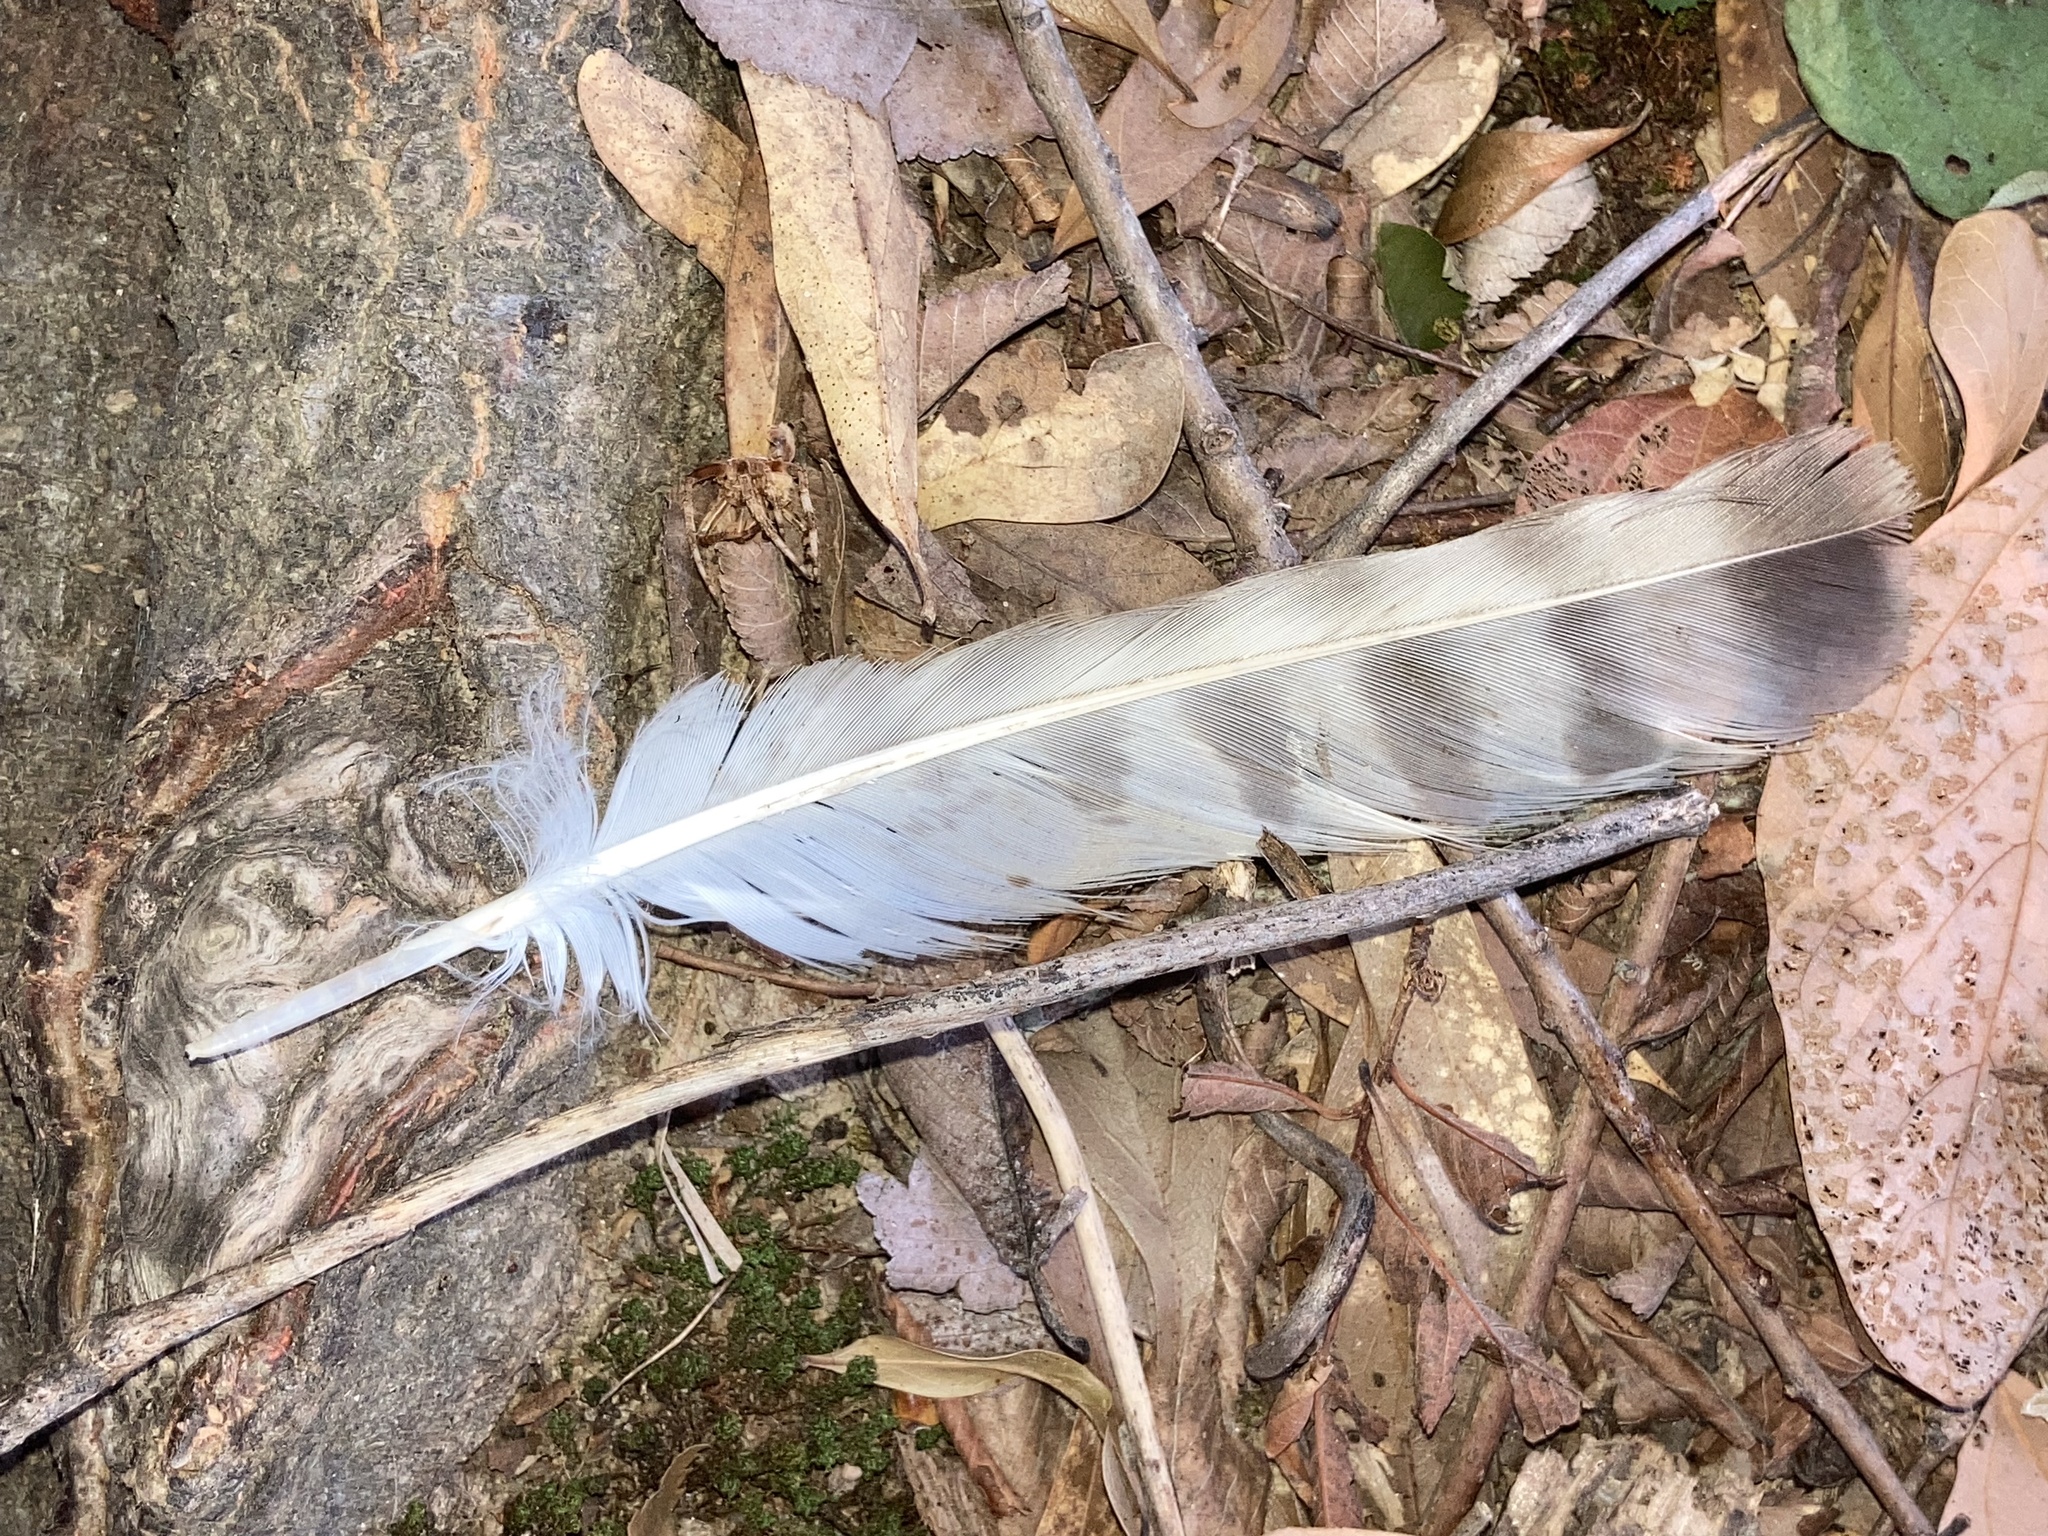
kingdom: Animalia
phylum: Chordata
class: Aves
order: Accipitriformes
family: Accipitridae
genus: Buteo
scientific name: Buteo platypterus
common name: Broad-winged hawk
